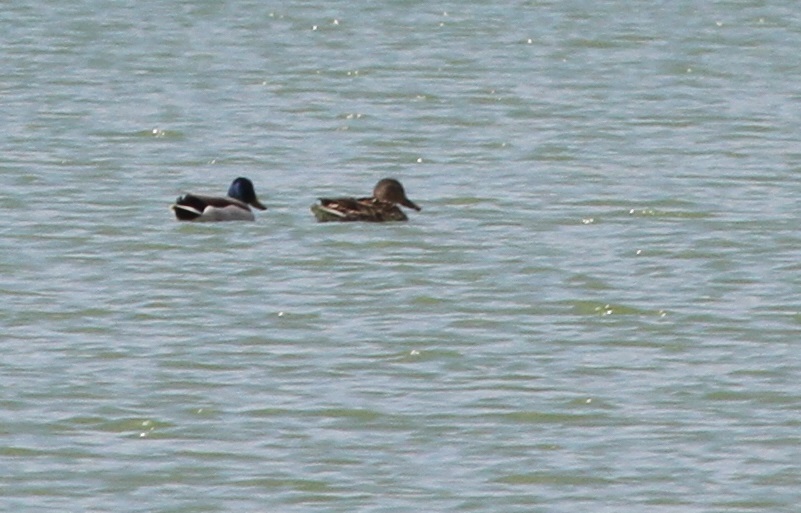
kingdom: Animalia
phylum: Chordata
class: Aves
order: Anseriformes
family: Anatidae
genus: Anas
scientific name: Anas platyrhynchos
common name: Mallard
